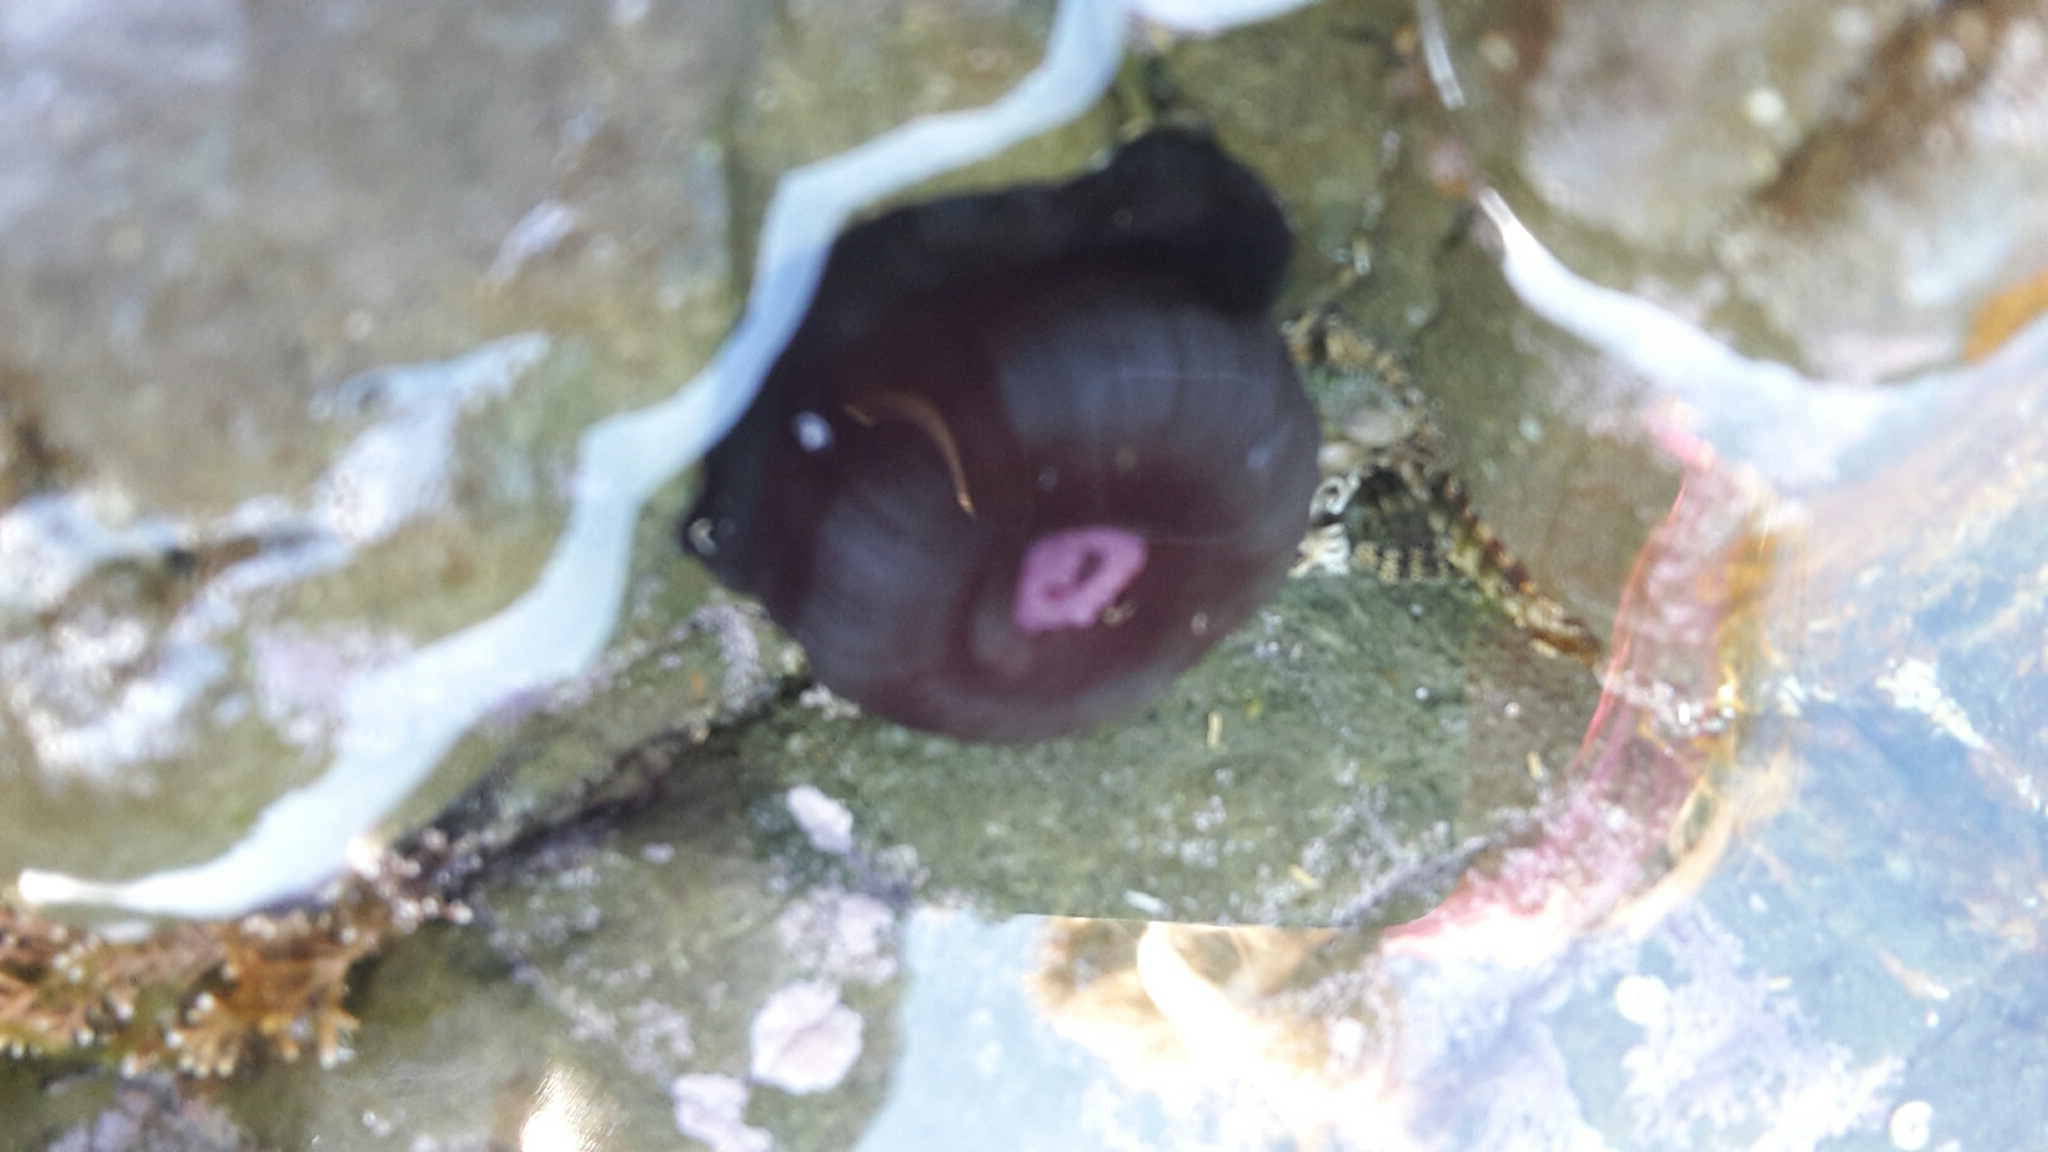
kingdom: Animalia
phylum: Cnidaria
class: Anthozoa
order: Actiniaria
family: Actiniidae
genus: Actinia
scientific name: Actinia tenebrosa
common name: Waratah anemone
